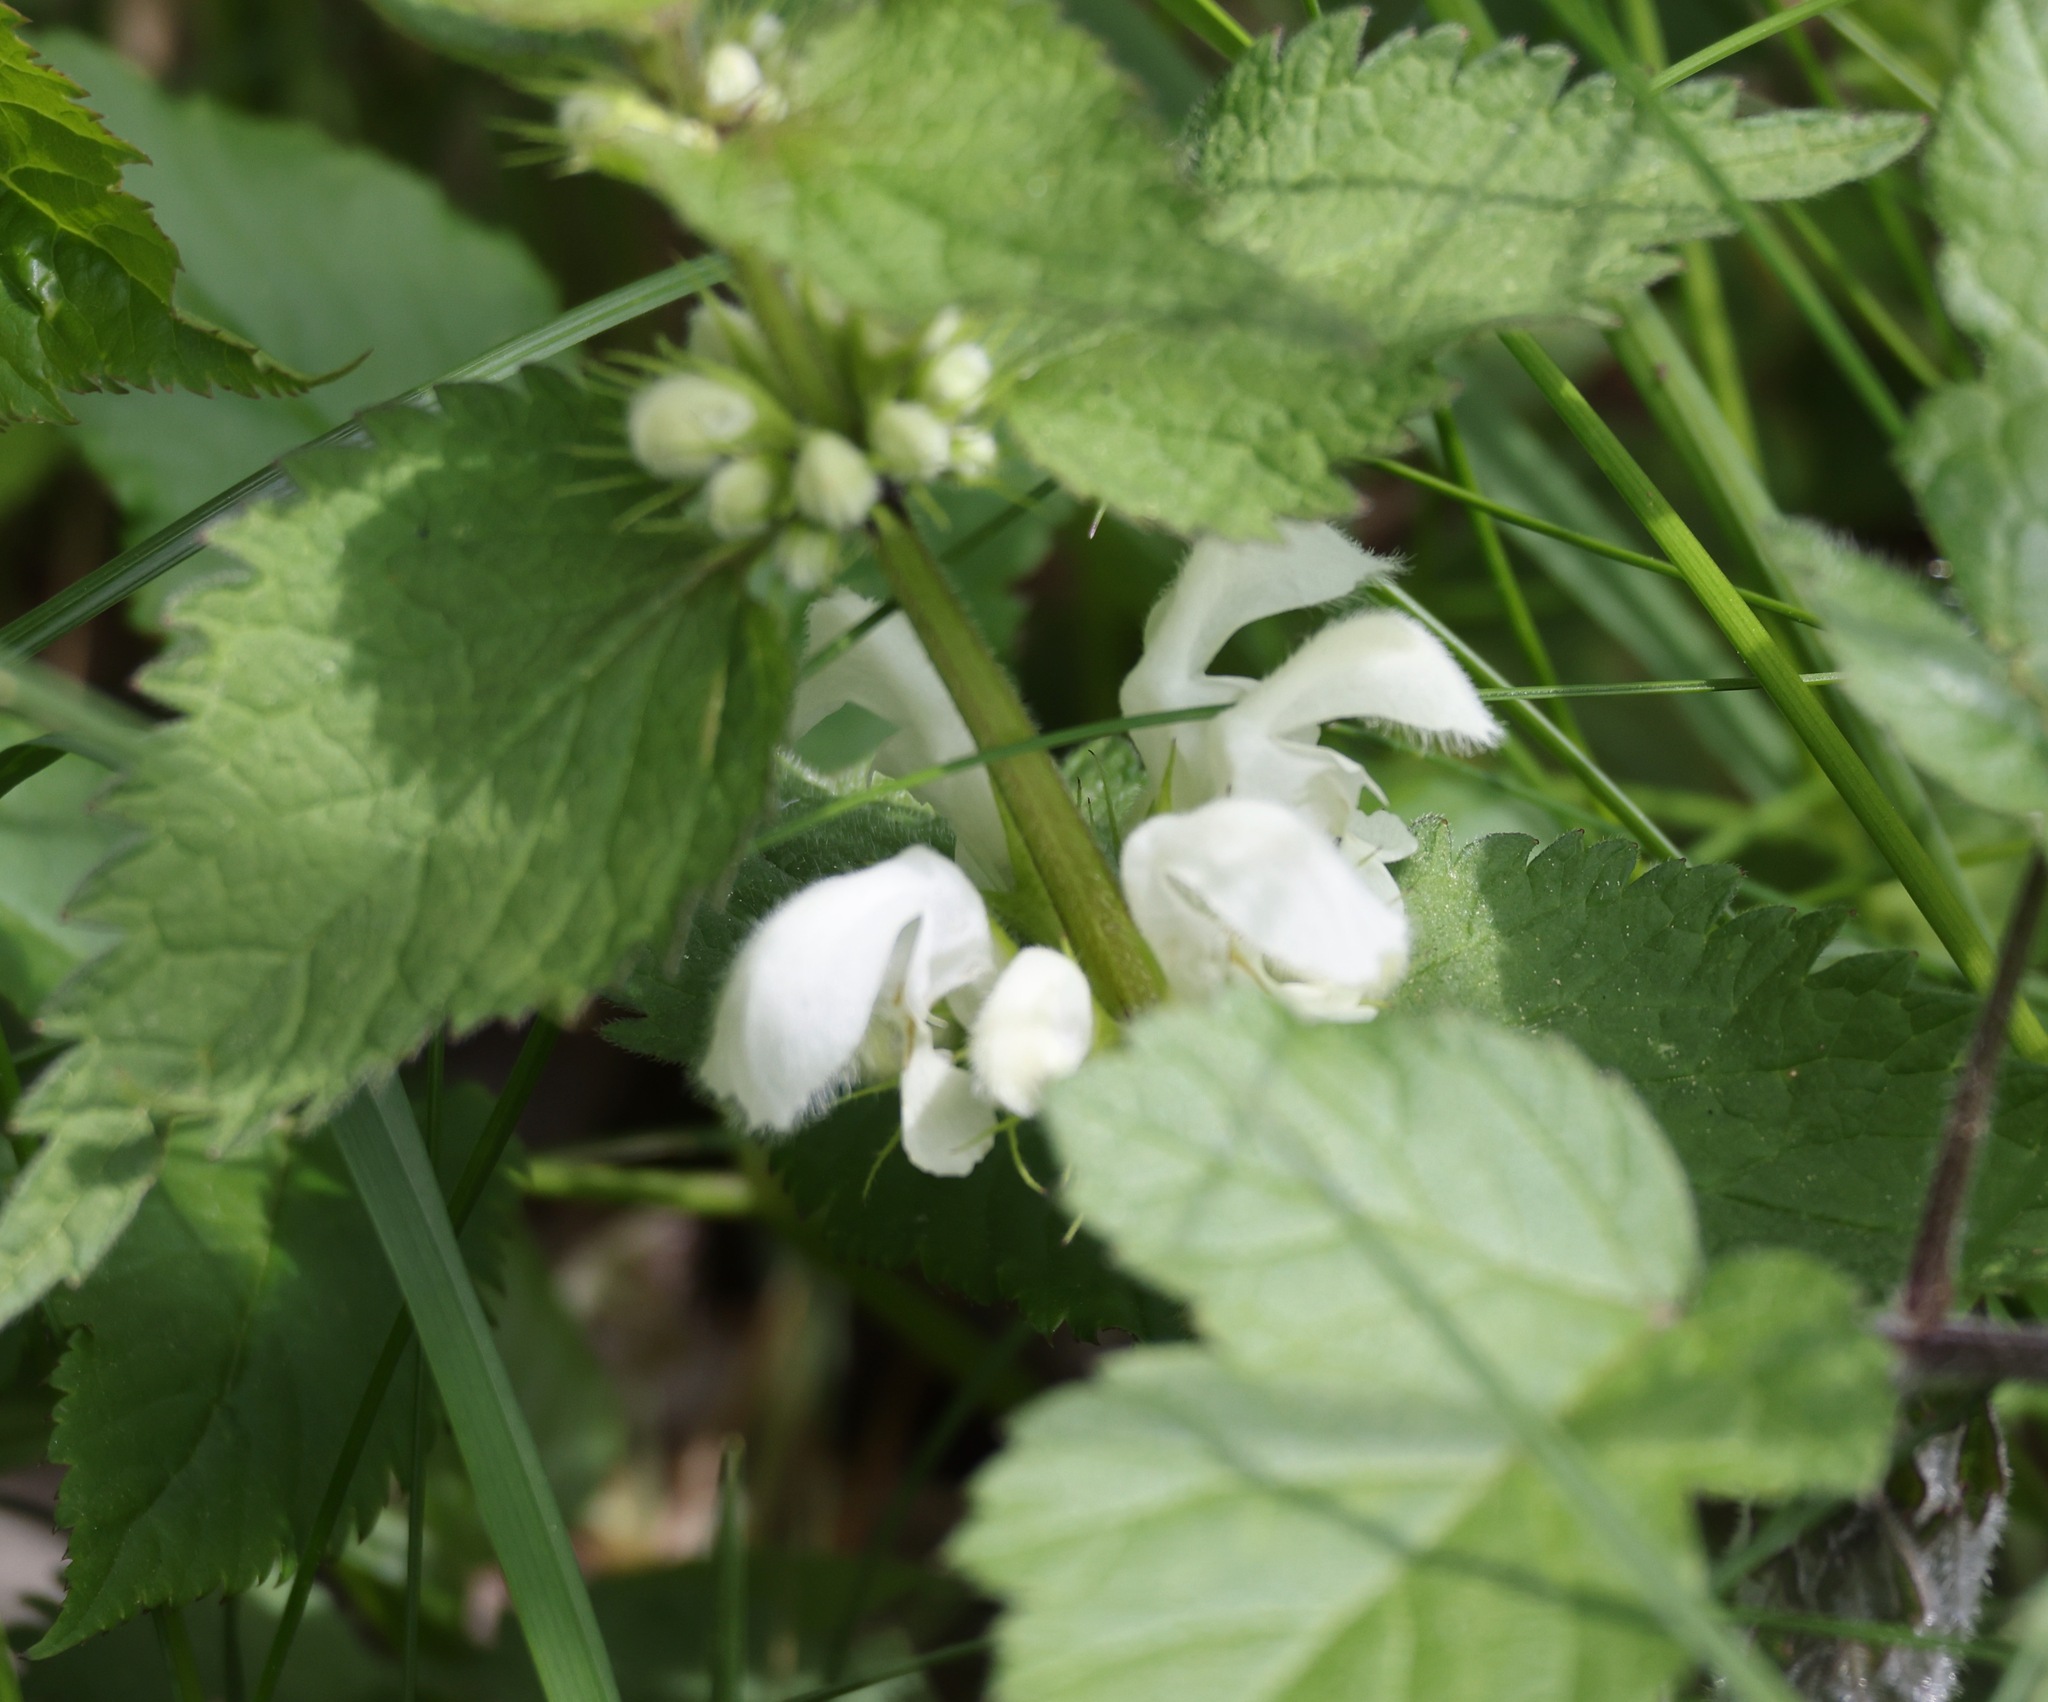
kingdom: Plantae
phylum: Tracheophyta
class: Magnoliopsida
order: Lamiales
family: Lamiaceae
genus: Lamium
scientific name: Lamium album
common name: White dead-nettle
